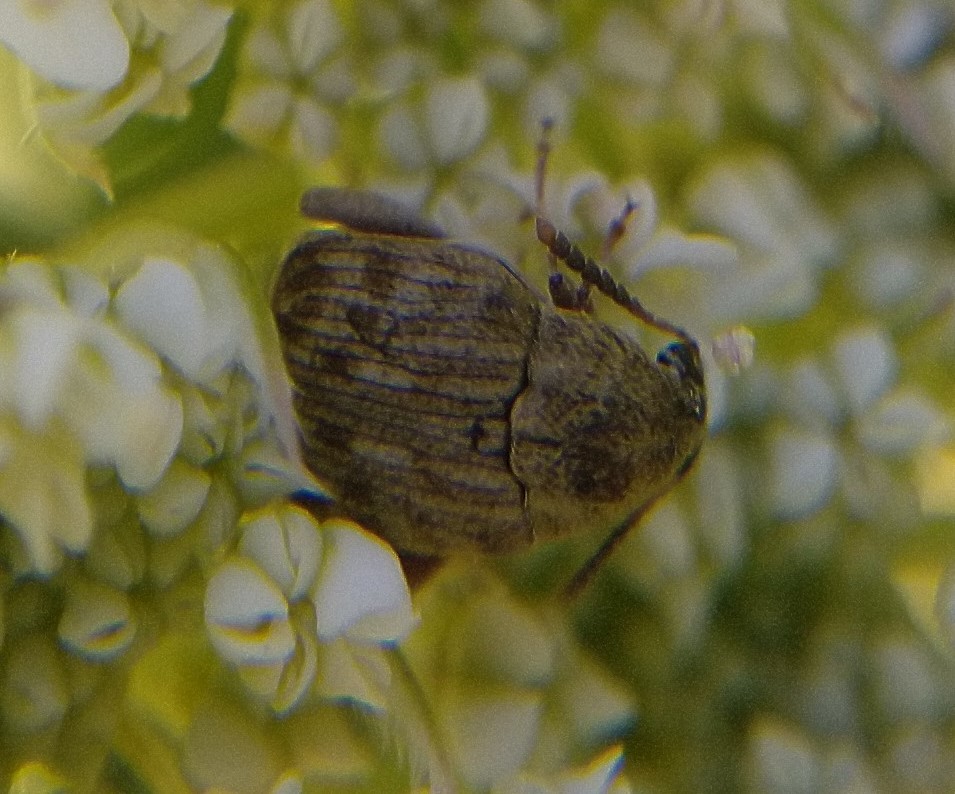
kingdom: Animalia
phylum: Arthropoda
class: Insecta
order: Coleoptera
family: Chrysomelidae
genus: Acanthoscelides
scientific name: Acanthoscelides obtectus
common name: Bean weevil
